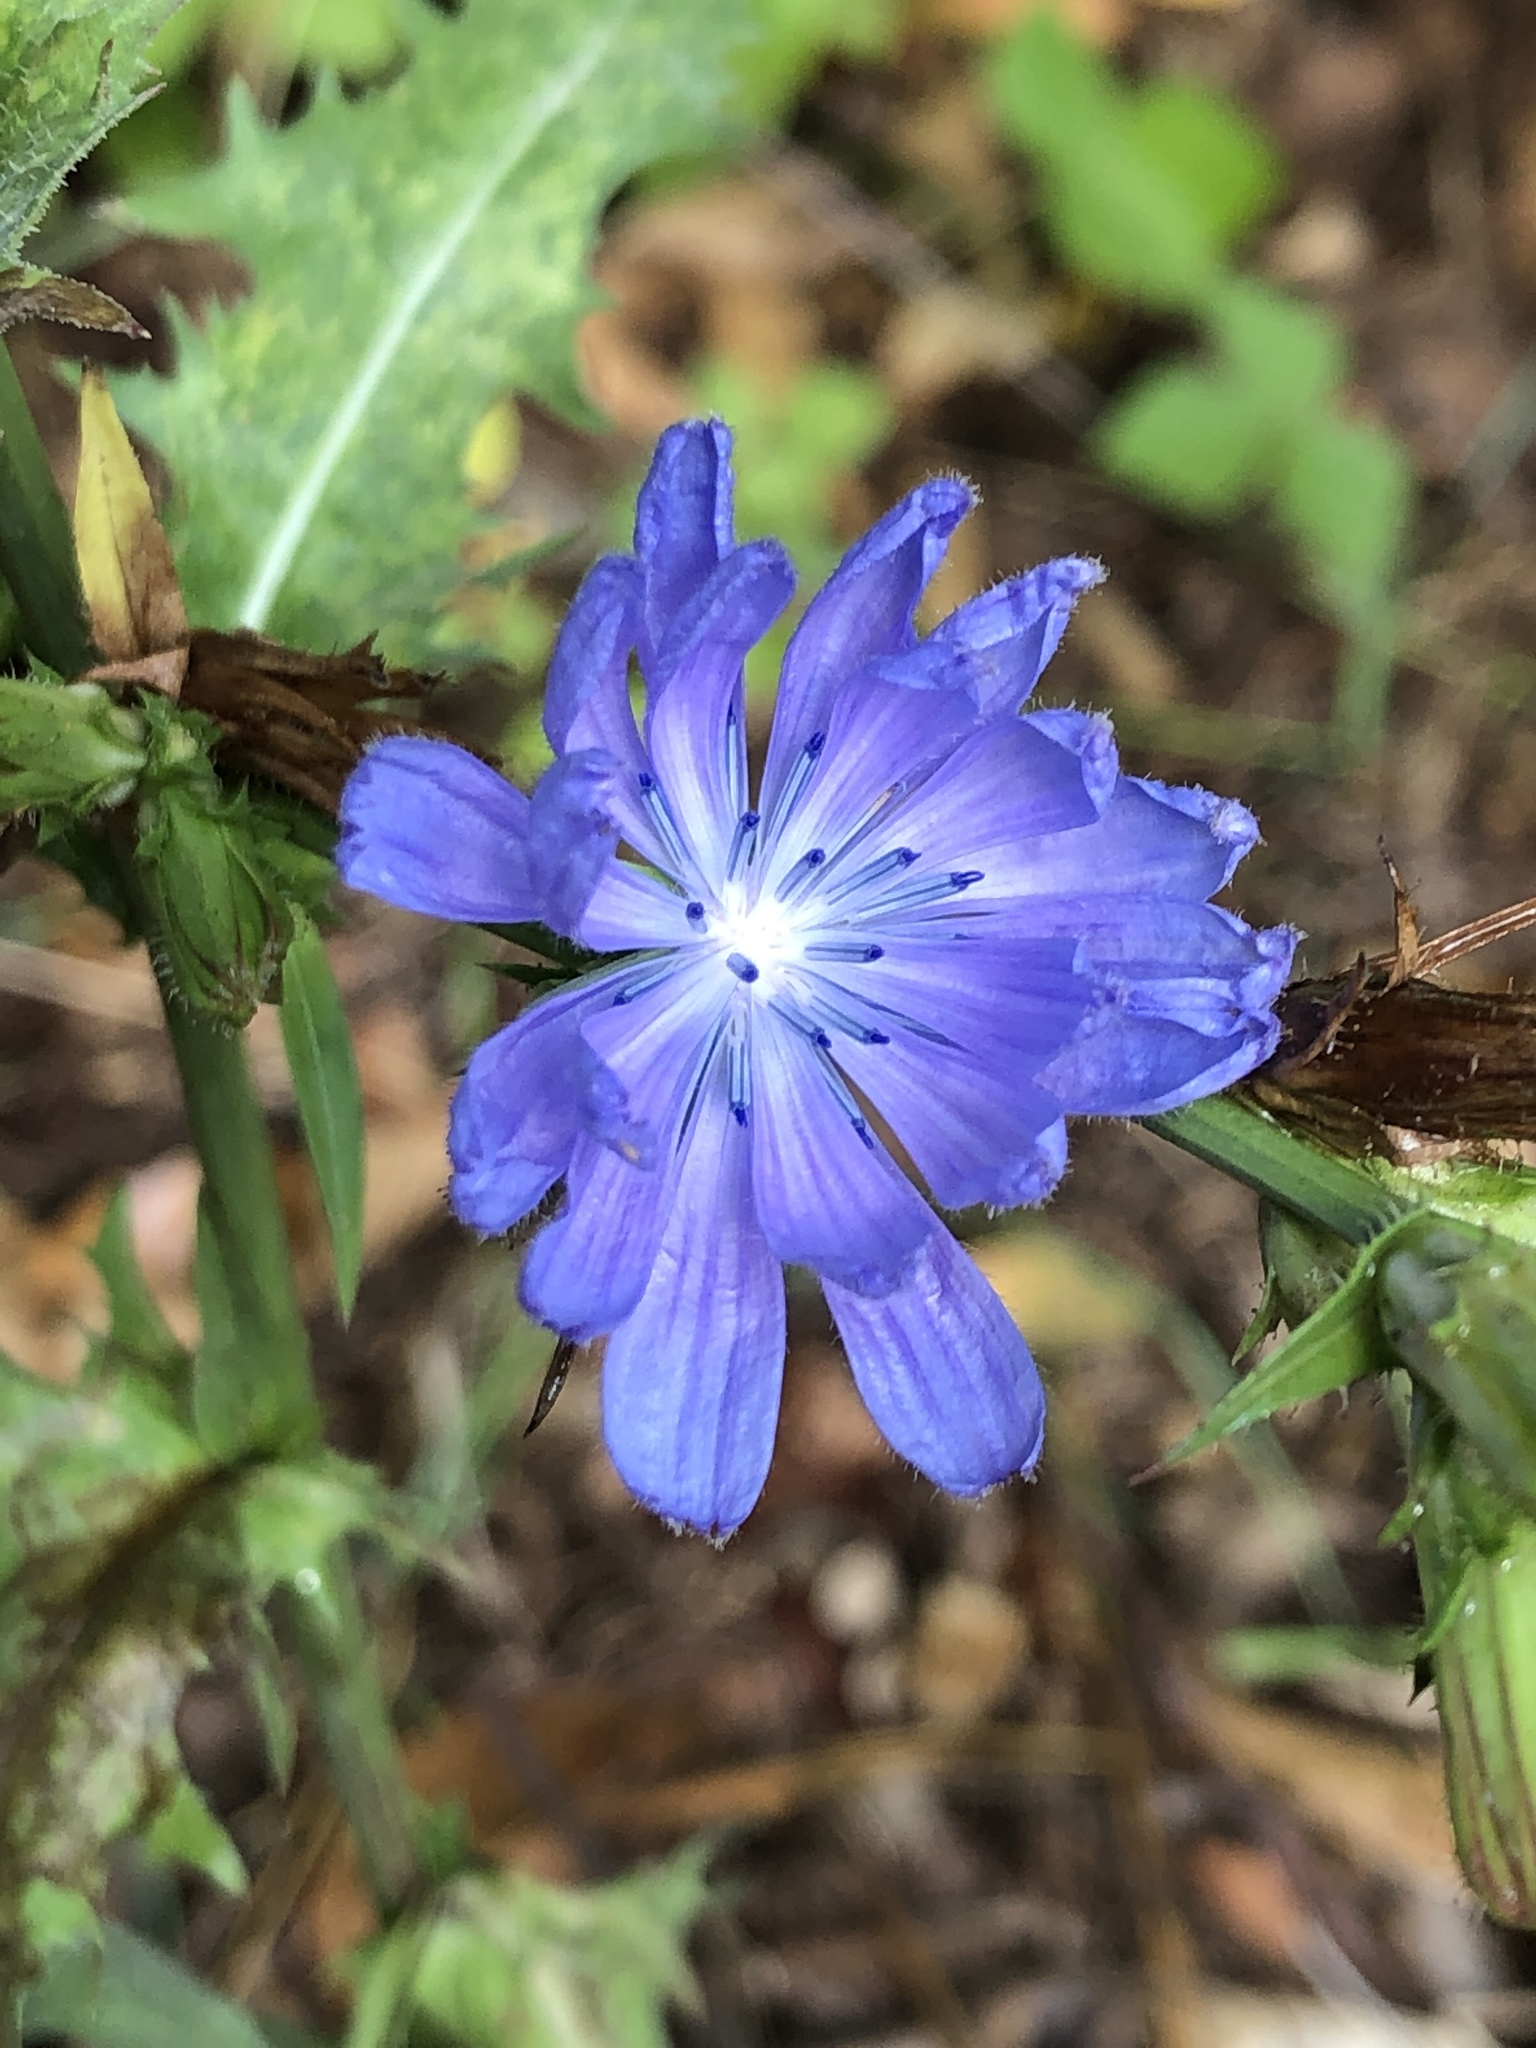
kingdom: Plantae
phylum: Tracheophyta
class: Magnoliopsida
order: Asterales
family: Asteraceae
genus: Cichorium
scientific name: Cichorium intybus
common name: Chicory
